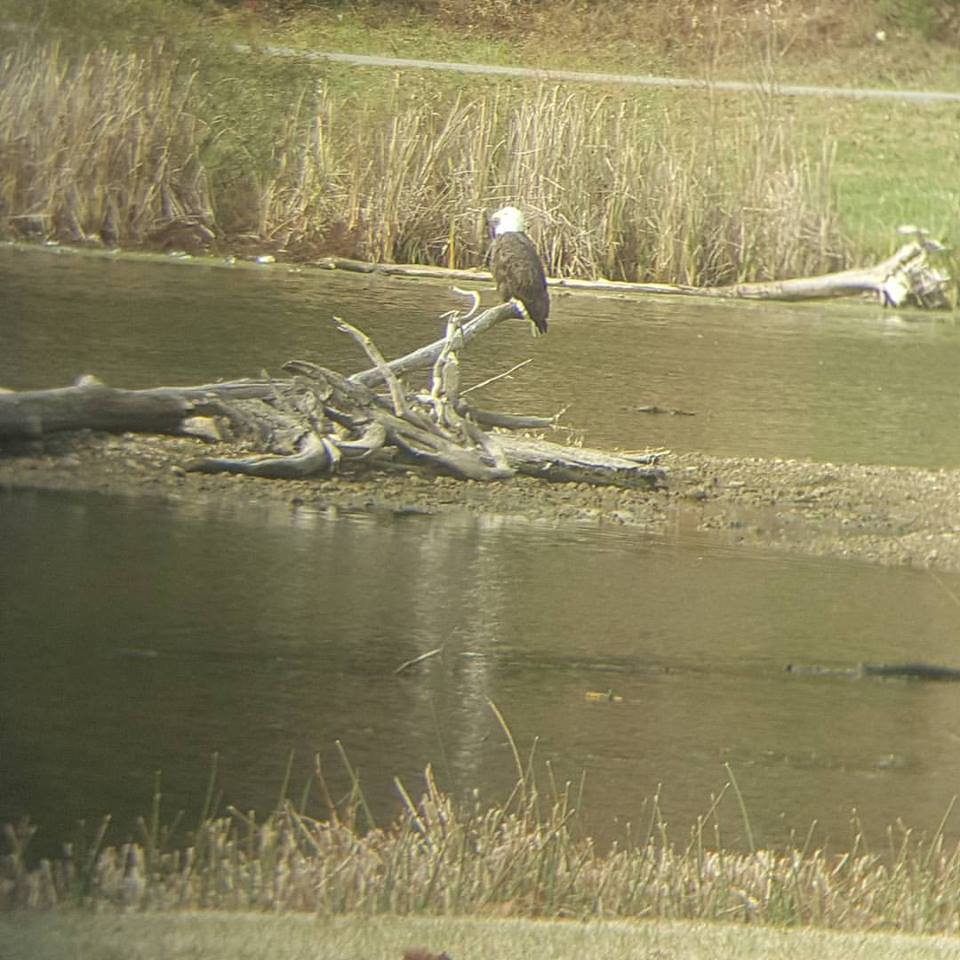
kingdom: Animalia
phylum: Chordata
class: Aves
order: Accipitriformes
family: Accipitridae
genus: Haliaeetus
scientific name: Haliaeetus leucocephalus
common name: Bald eagle
